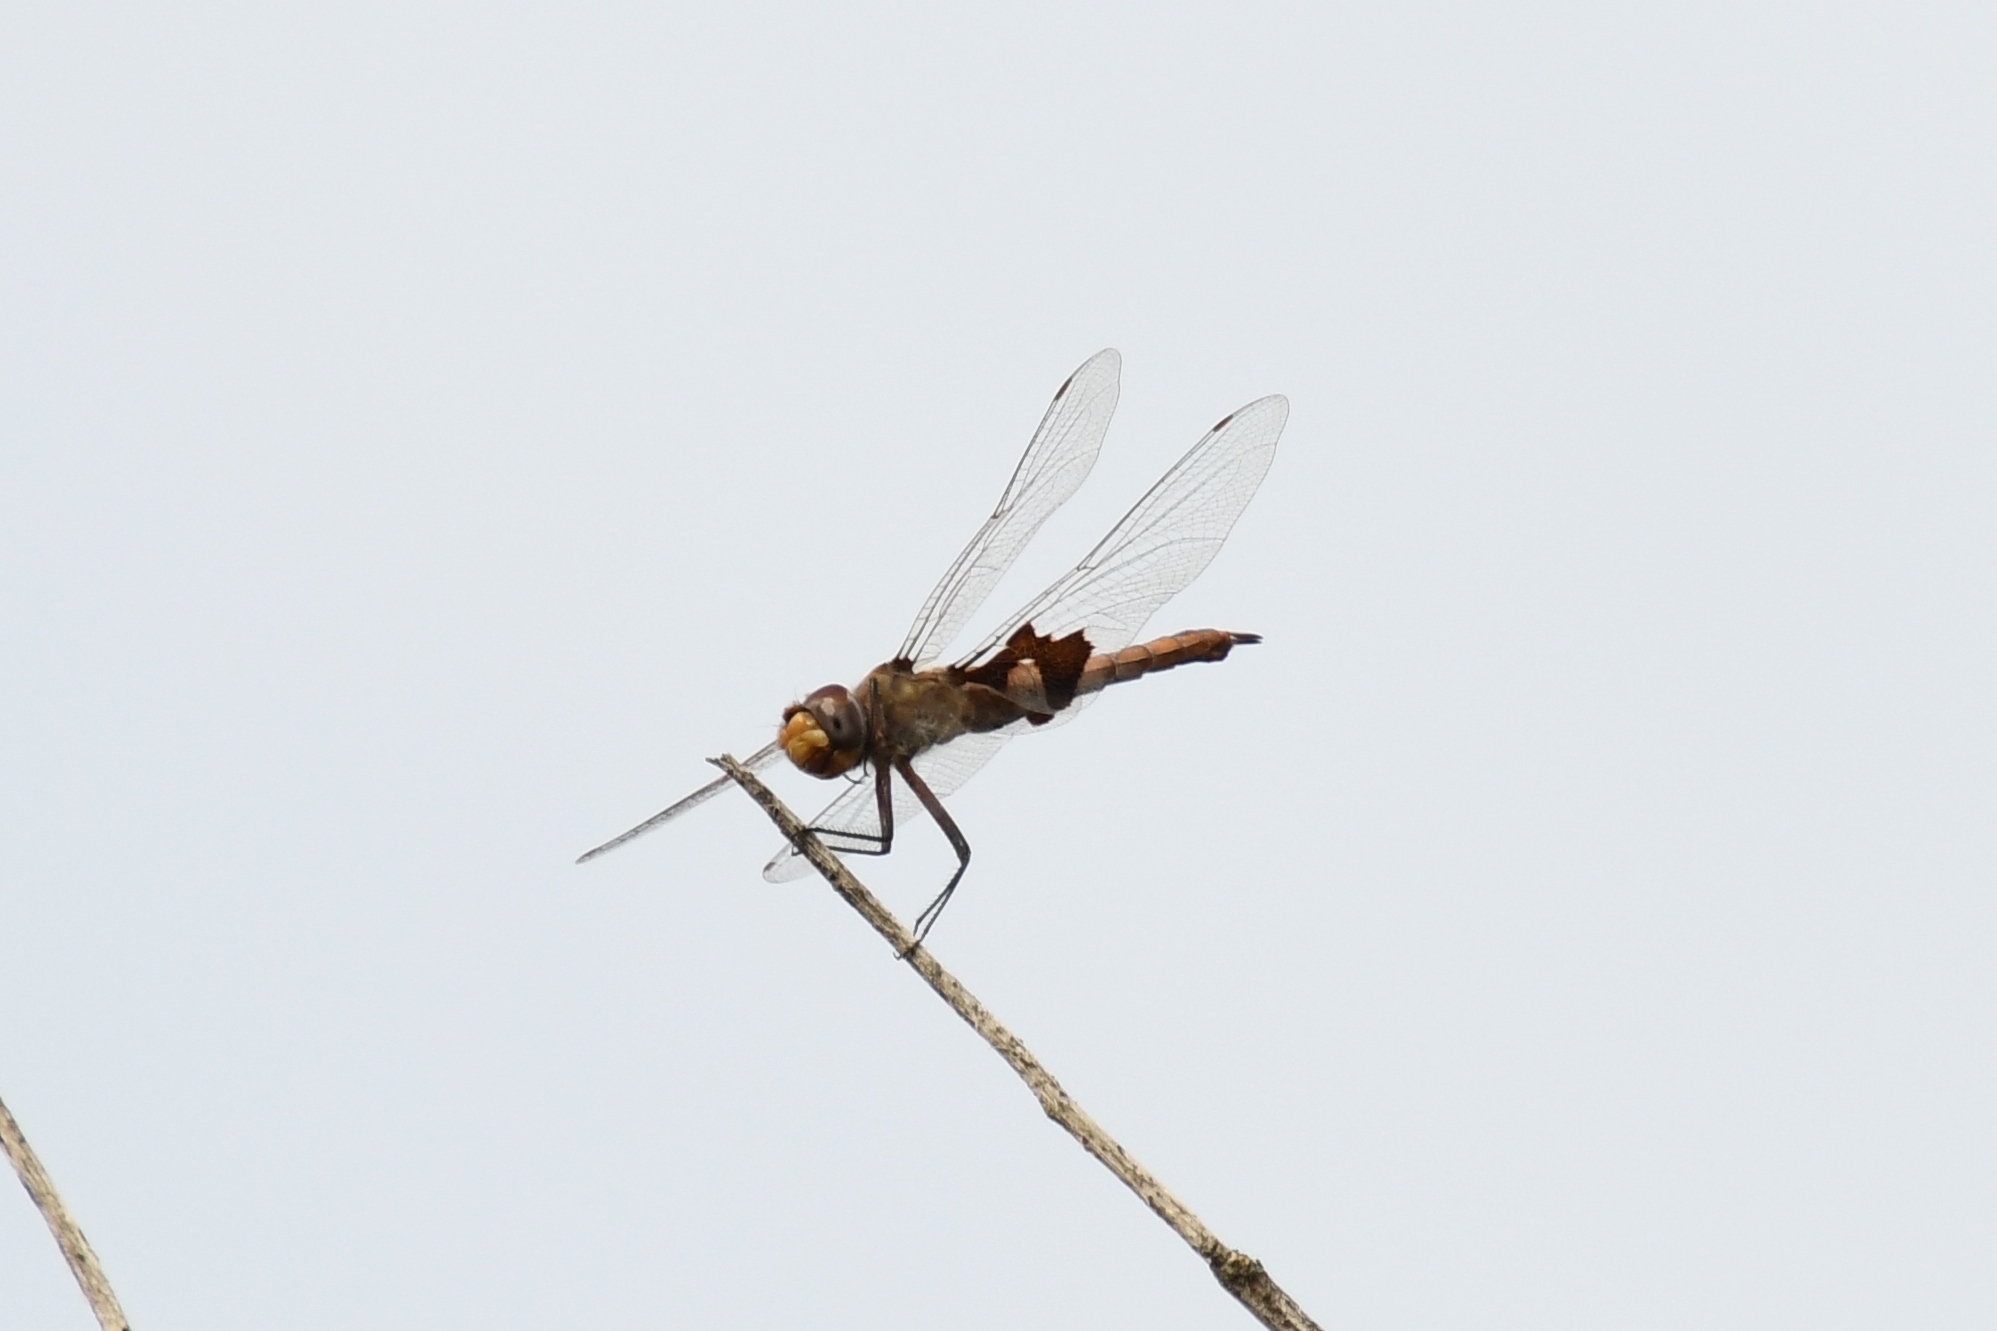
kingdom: Animalia
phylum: Arthropoda
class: Insecta
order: Odonata
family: Libellulidae
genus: Tramea
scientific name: Tramea onusta
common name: Red saddlebags
